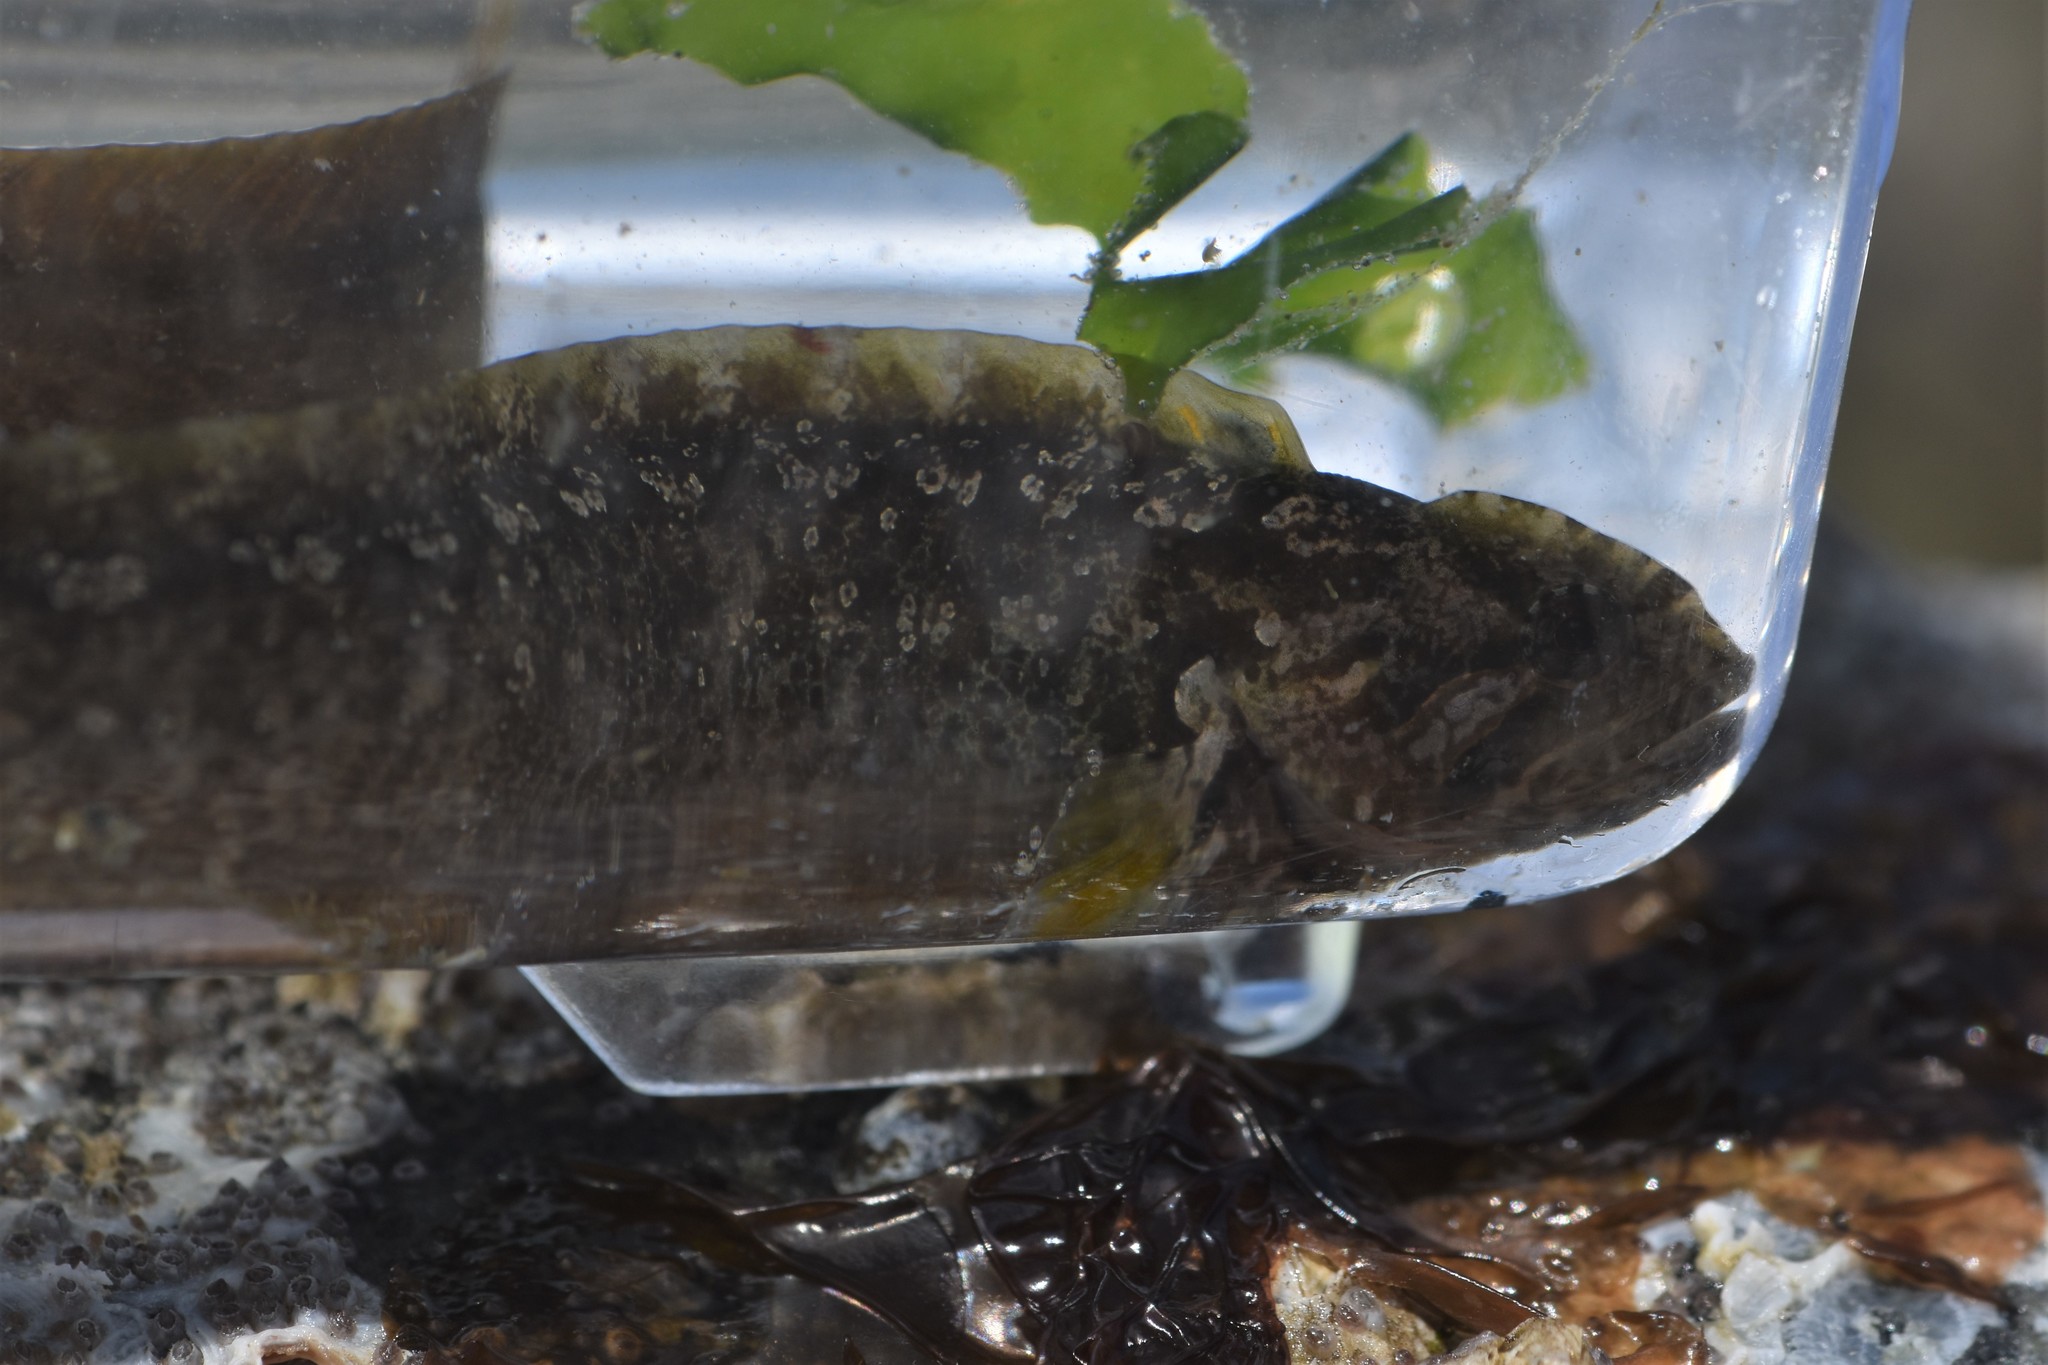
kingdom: Animalia
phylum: Chordata
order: Perciformes
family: Stichaeidae
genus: Anoplarchus
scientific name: Anoplarchus purpurescens
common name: High cockscomb
